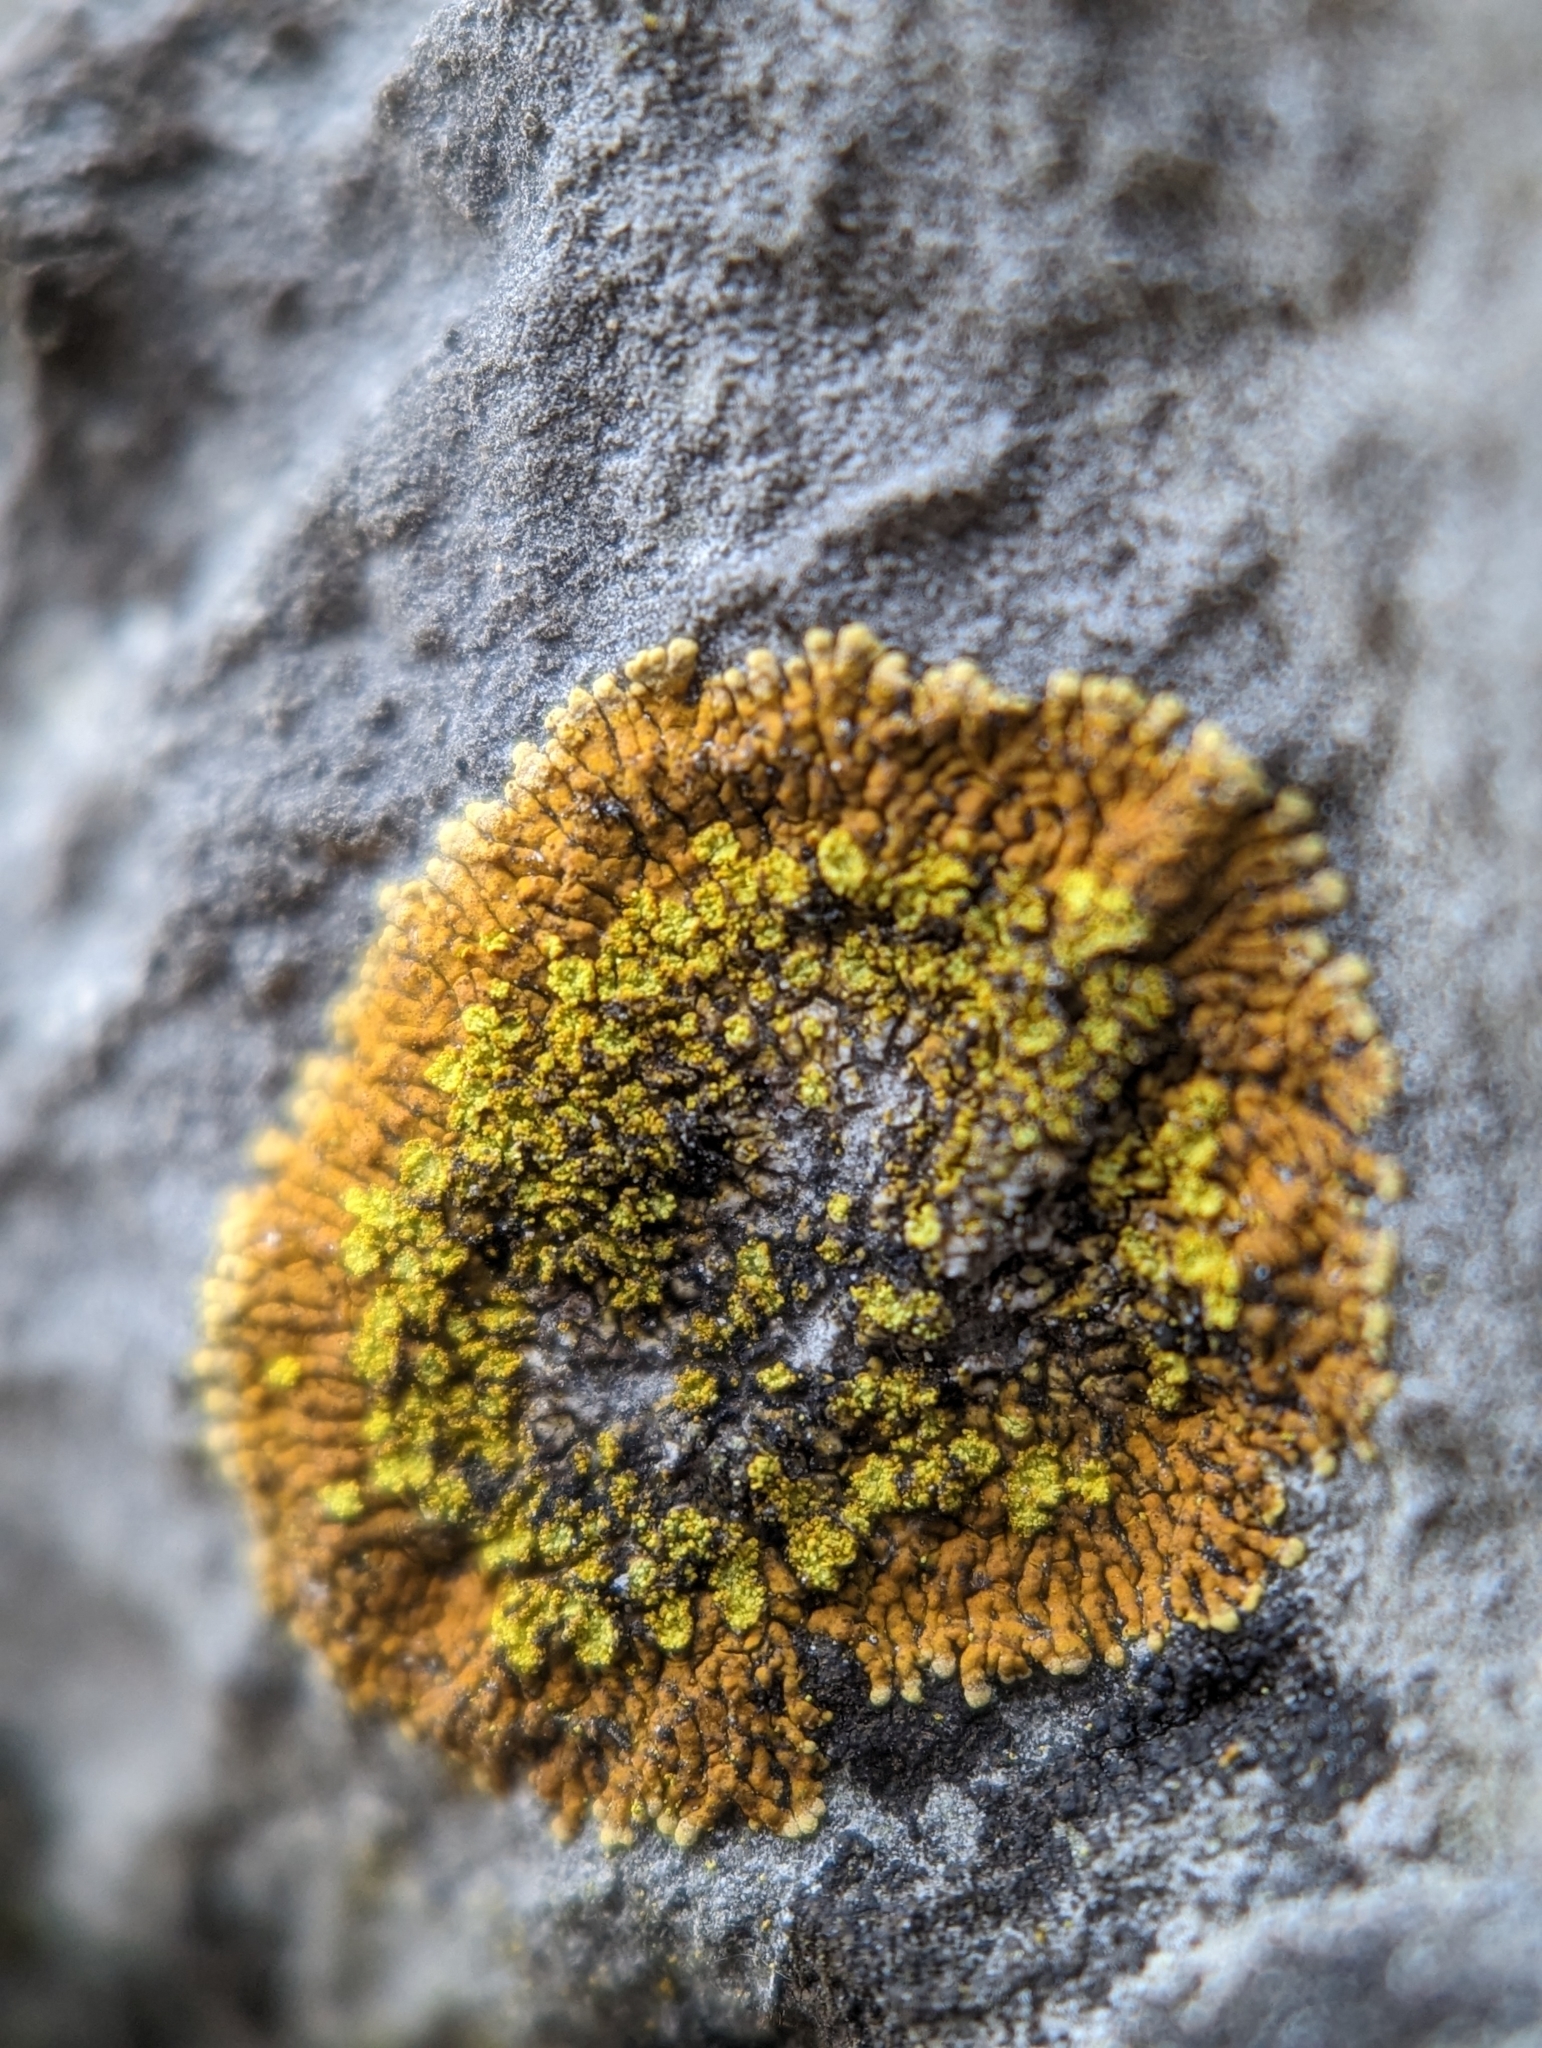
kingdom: Fungi
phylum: Ascomycota
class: Lecanoromycetes
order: Teloschistales
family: Teloschistaceae
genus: Leproplaca
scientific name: Leproplaca cirrochroa
